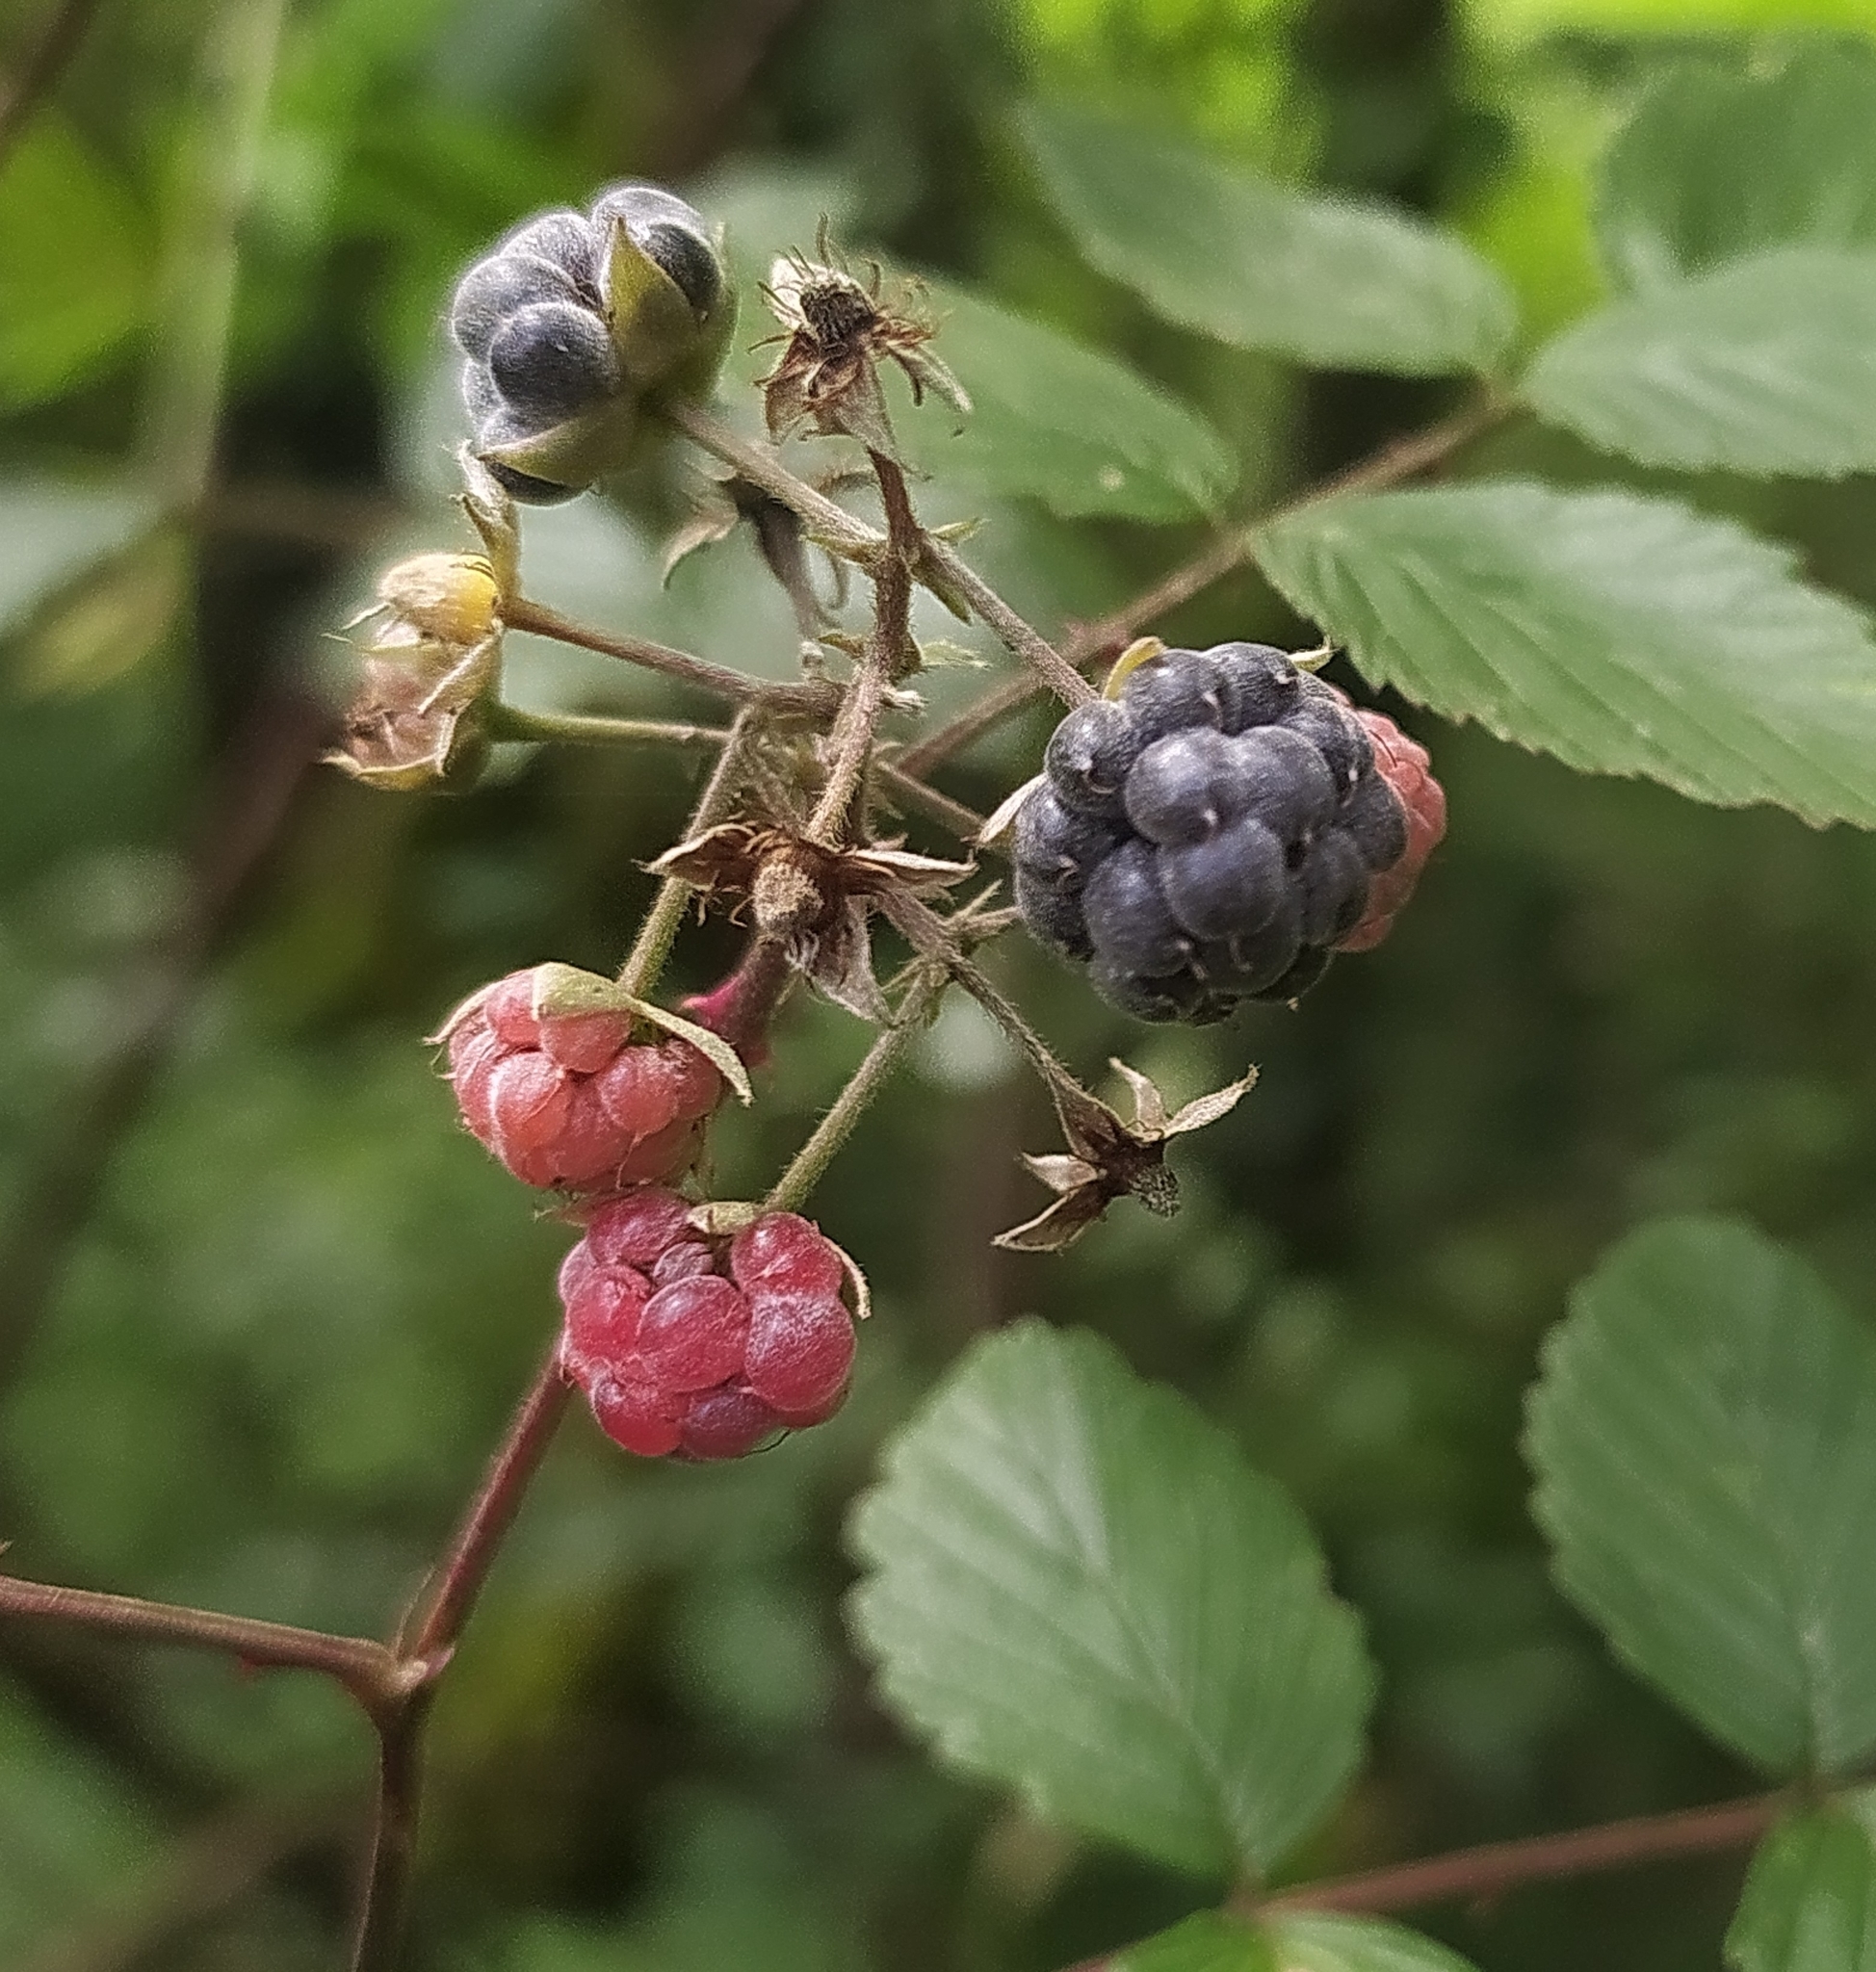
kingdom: Plantae
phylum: Tracheophyta
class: Magnoliopsida
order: Rosales
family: Rosaceae
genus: Rubus
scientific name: Rubus niveus
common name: Snowpeaks raspberry
